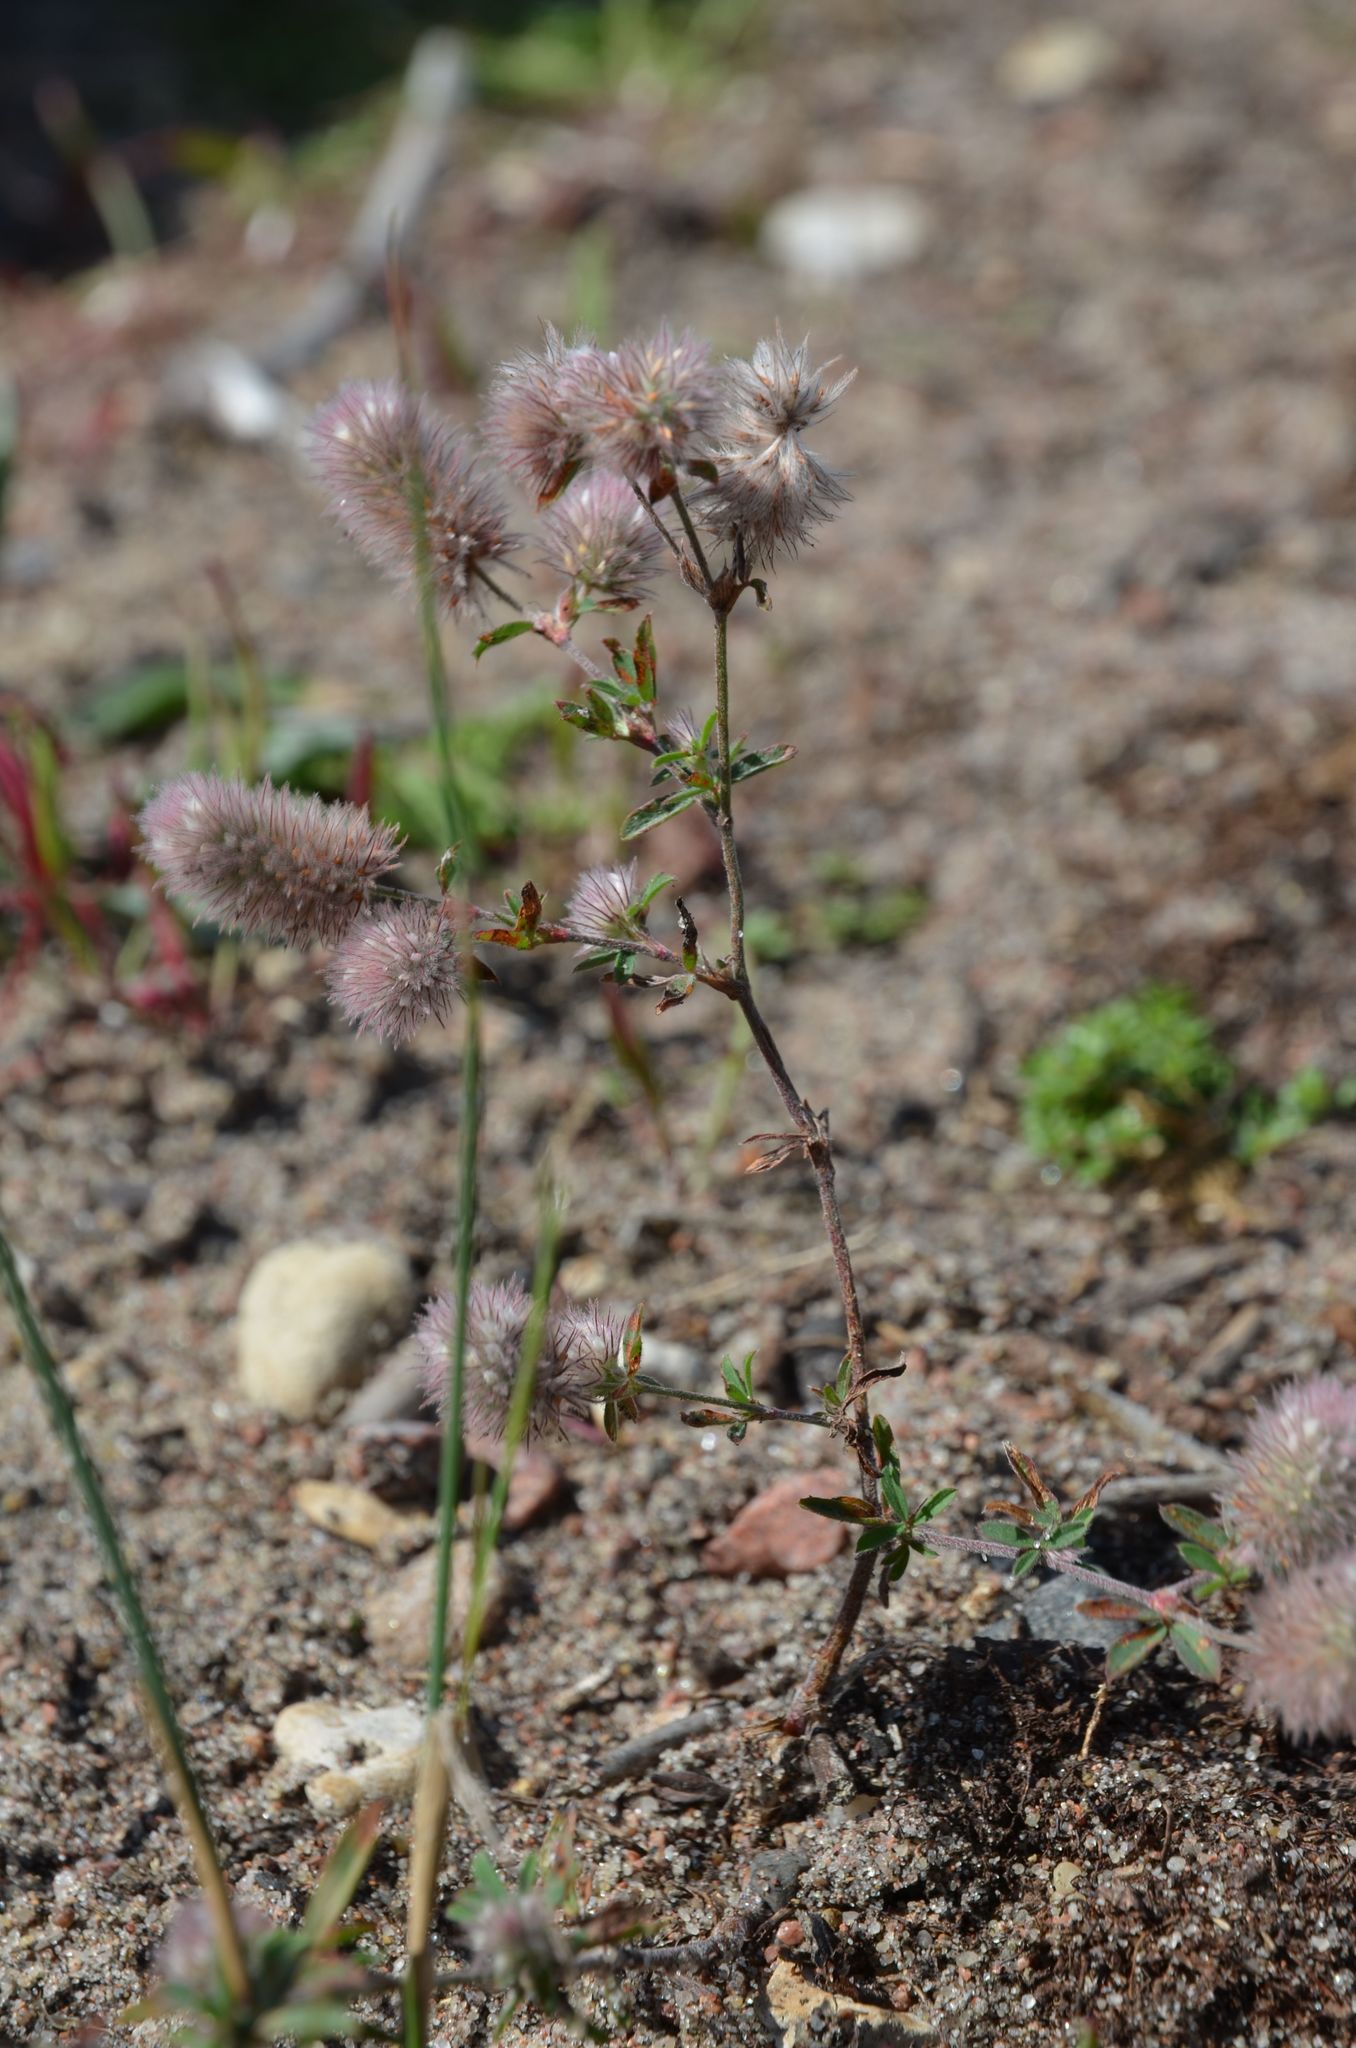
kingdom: Plantae
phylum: Tracheophyta
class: Magnoliopsida
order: Fabales
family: Fabaceae
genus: Trifolium
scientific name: Trifolium arvense
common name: Hare's-foot clover
